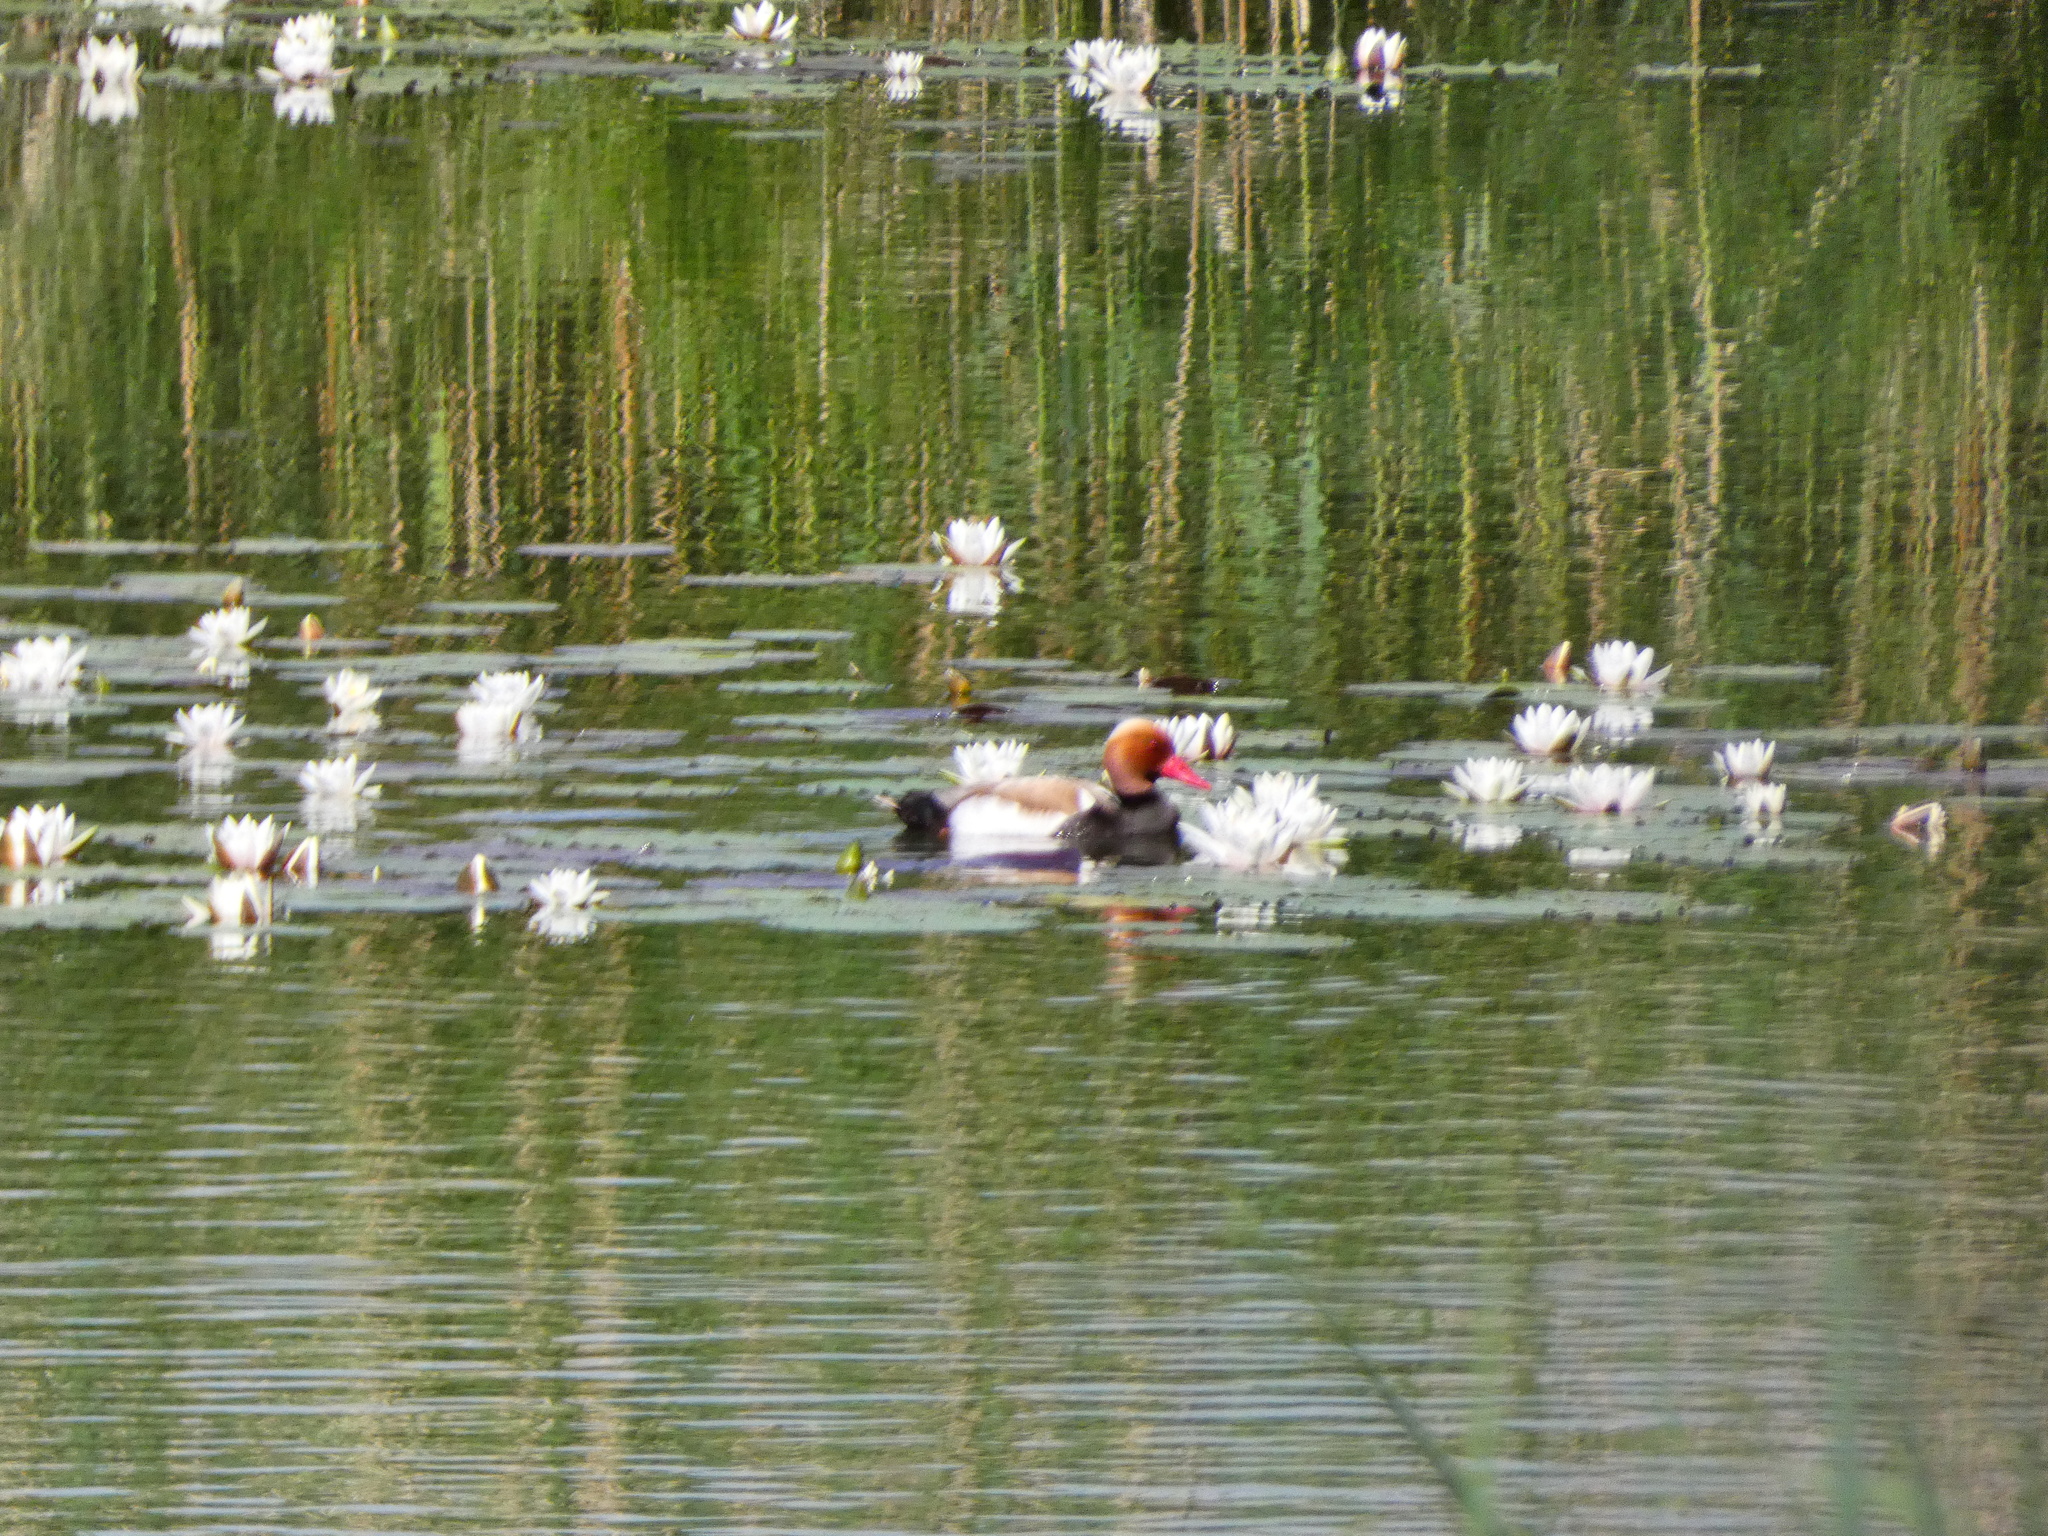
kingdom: Animalia
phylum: Chordata
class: Aves
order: Anseriformes
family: Anatidae
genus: Netta
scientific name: Netta rufina
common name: Red-crested pochard
